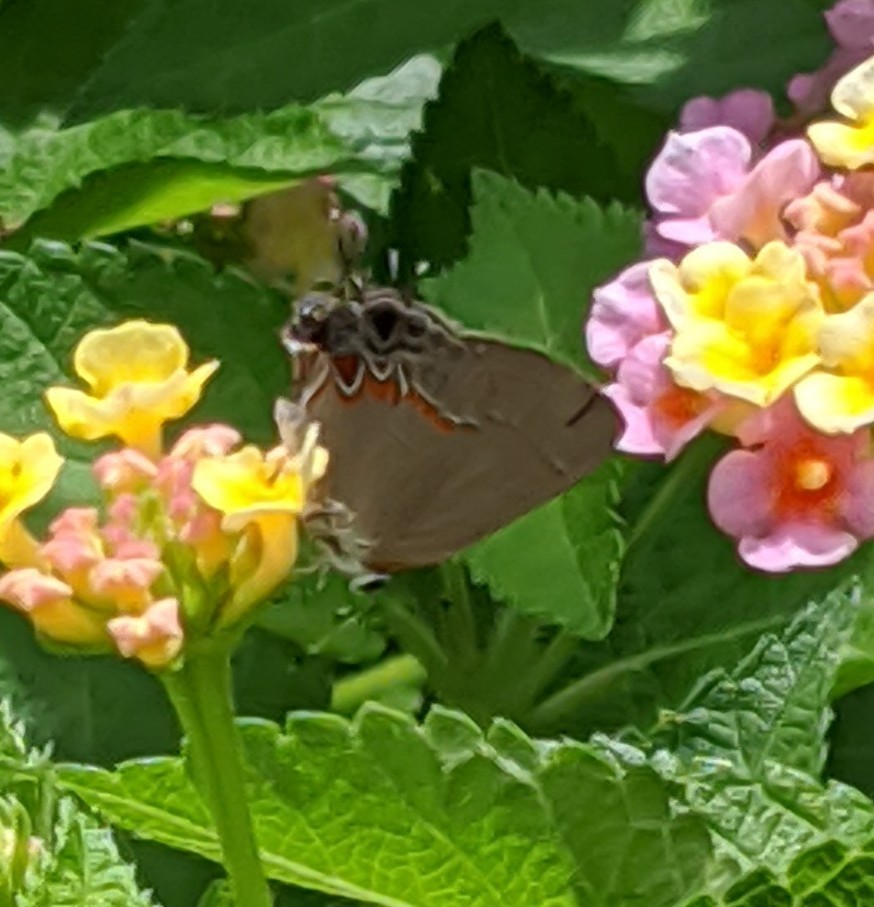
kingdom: Animalia
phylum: Arthropoda
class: Insecta
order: Lepidoptera
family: Lycaenidae
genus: Calycopis
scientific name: Calycopis cecrops
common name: Red-banded hairstreak
